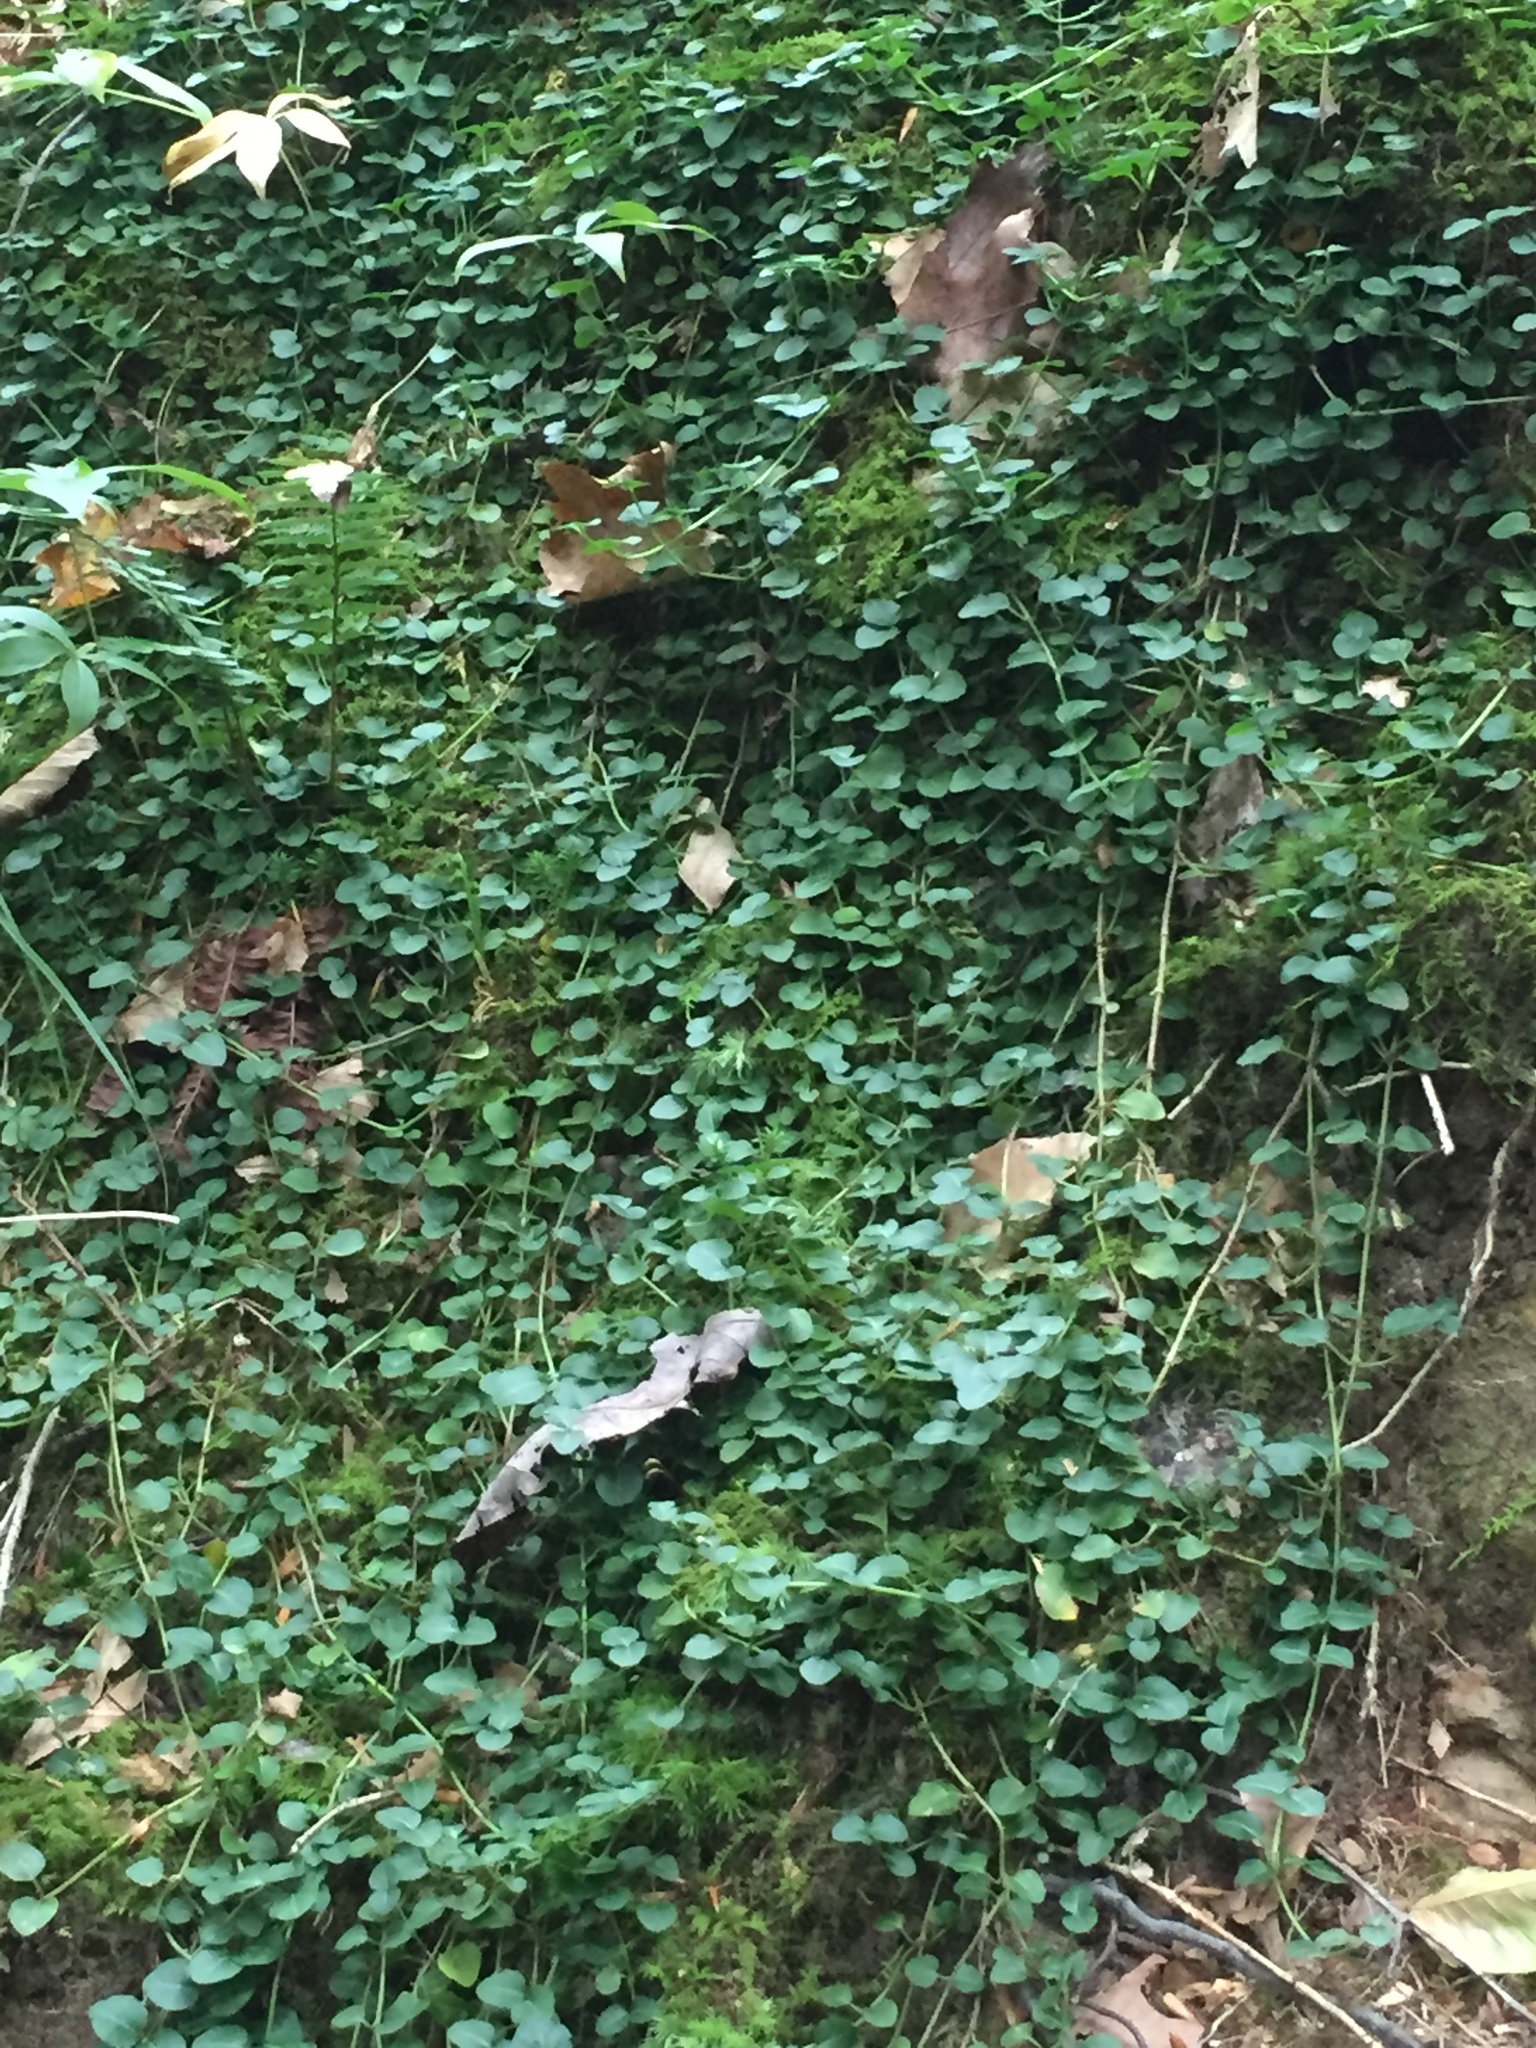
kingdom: Plantae
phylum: Tracheophyta
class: Magnoliopsida
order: Gentianales
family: Rubiaceae
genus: Mitchella
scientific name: Mitchella repens
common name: Partridge-berry
